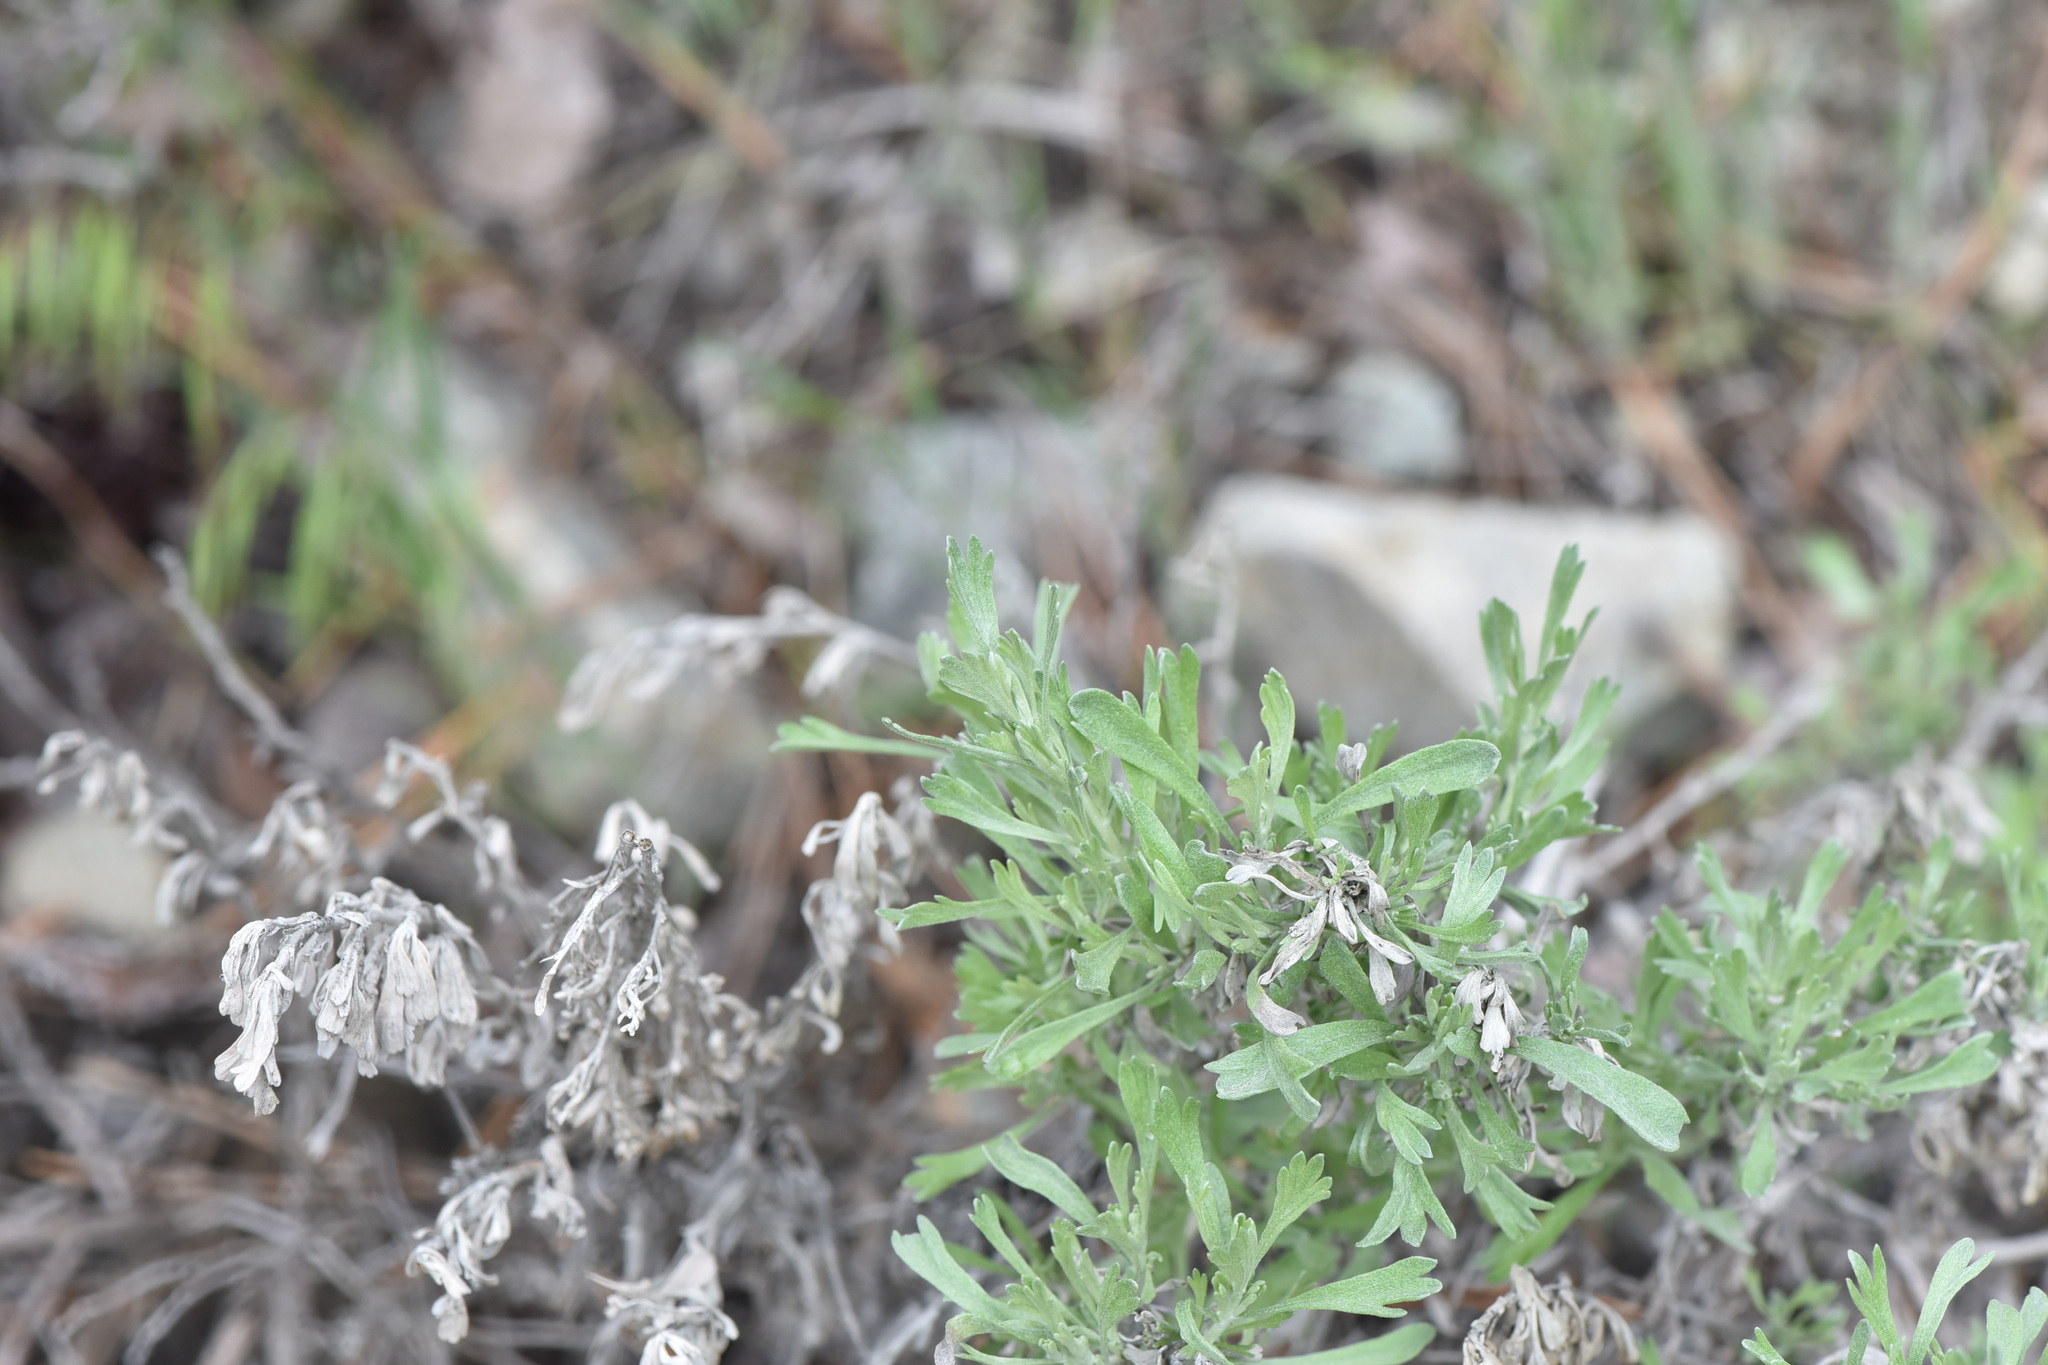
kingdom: Plantae
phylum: Tracheophyta
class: Magnoliopsida
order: Asterales
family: Asteraceae
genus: Artemisia
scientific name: Artemisia tridentata
